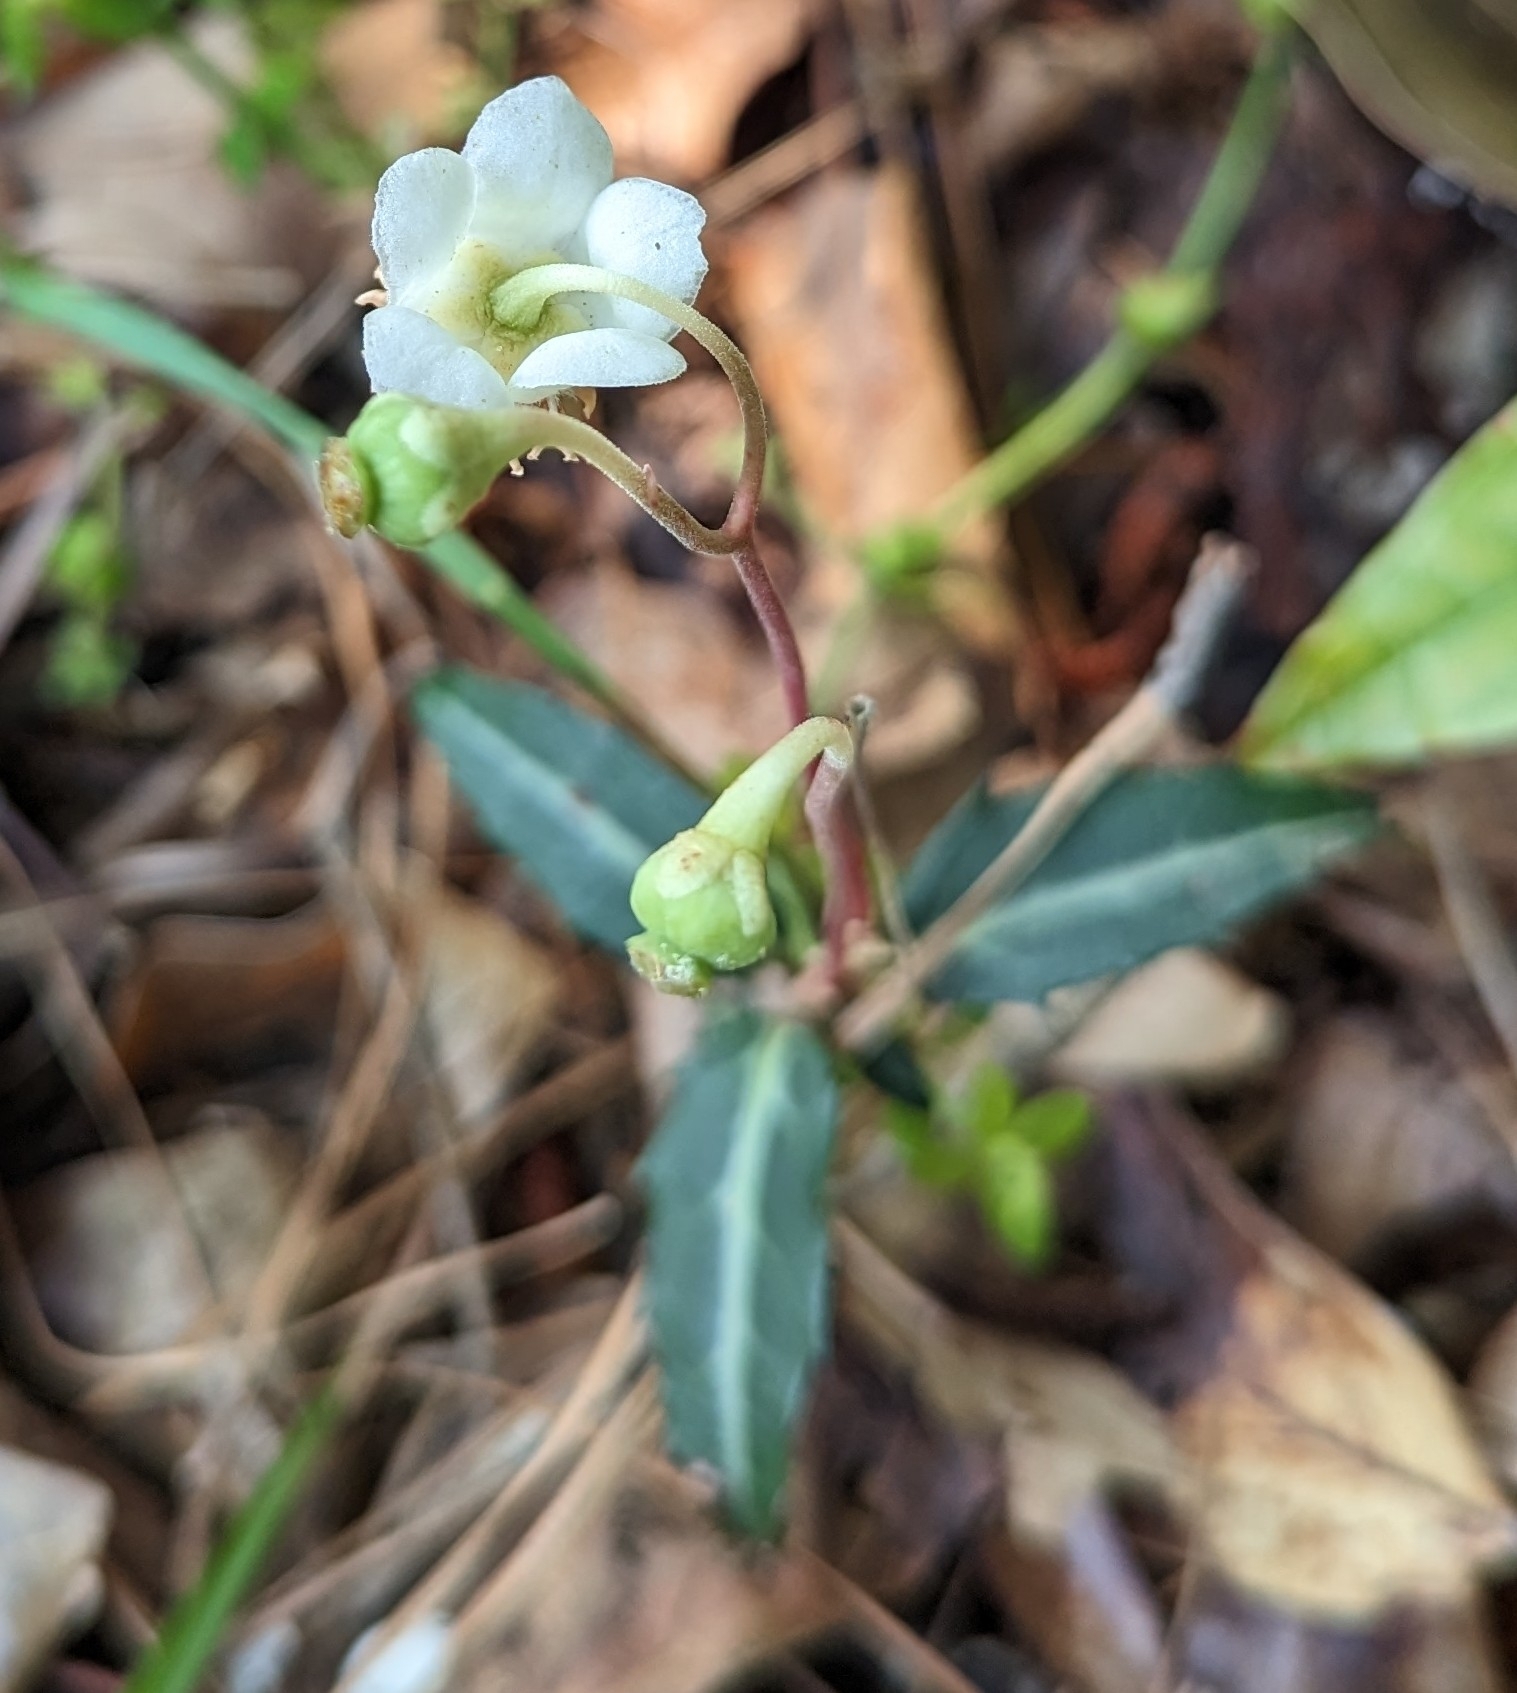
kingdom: Plantae
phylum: Tracheophyta
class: Magnoliopsida
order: Ericales
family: Ericaceae
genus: Chimaphila
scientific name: Chimaphila maculata
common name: Spotted pipsissewa
